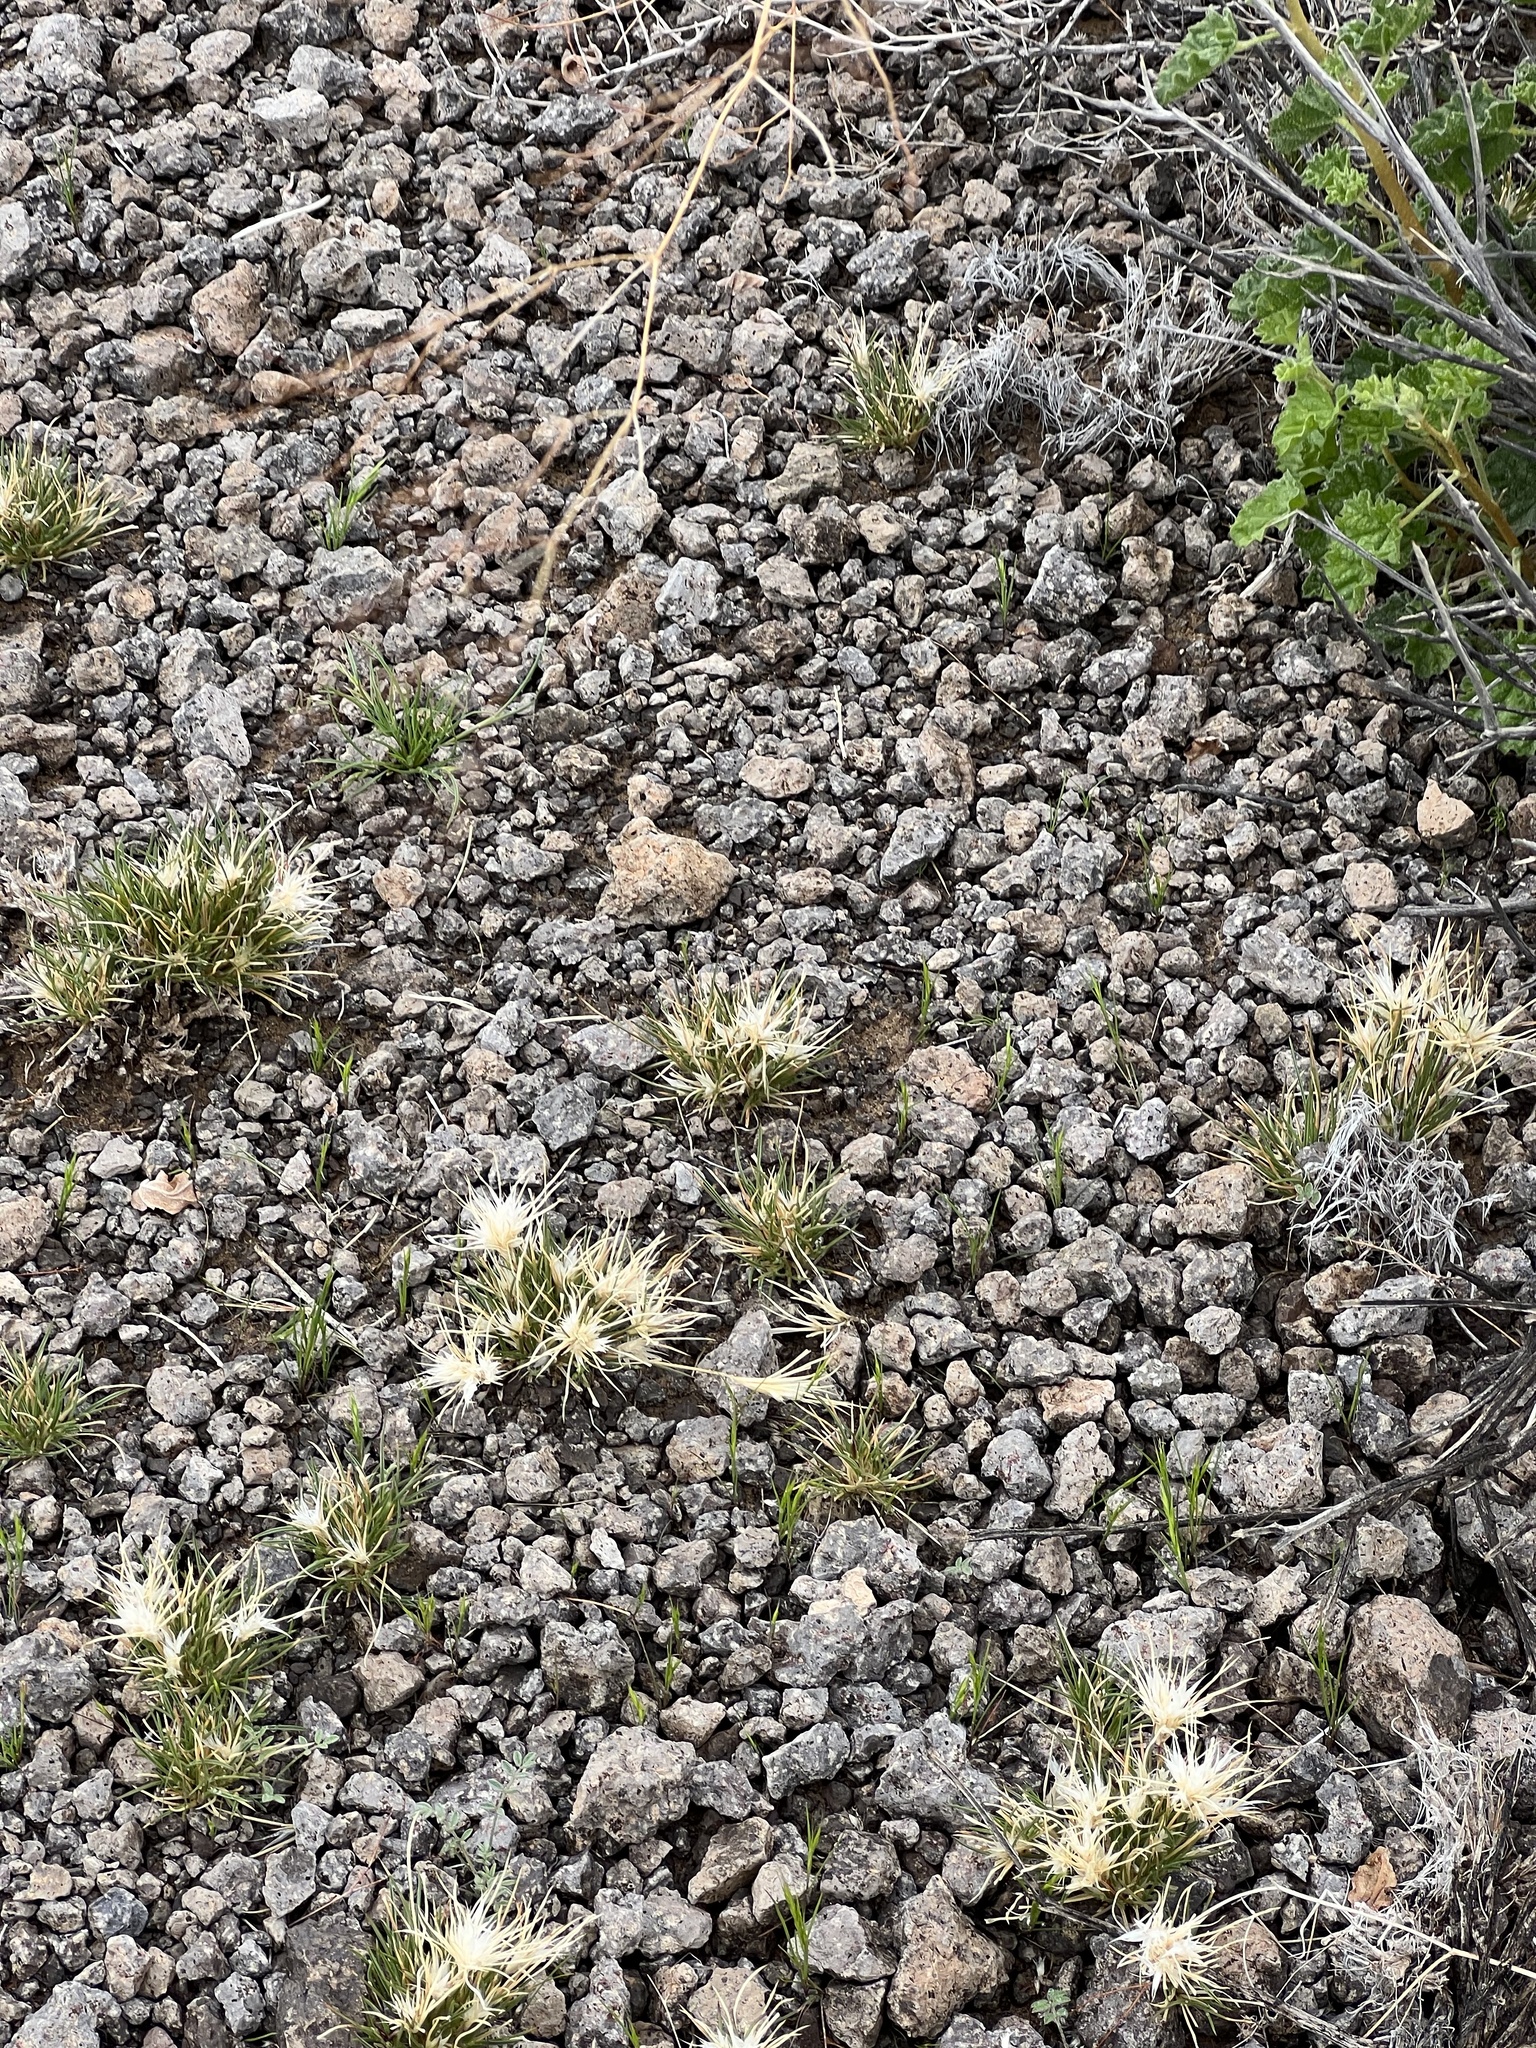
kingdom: Plantae
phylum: Tracheophyta
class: Liliopsida
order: Poales
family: Poaceae
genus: Dasyochloa
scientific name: Dasyochloa pulchella
